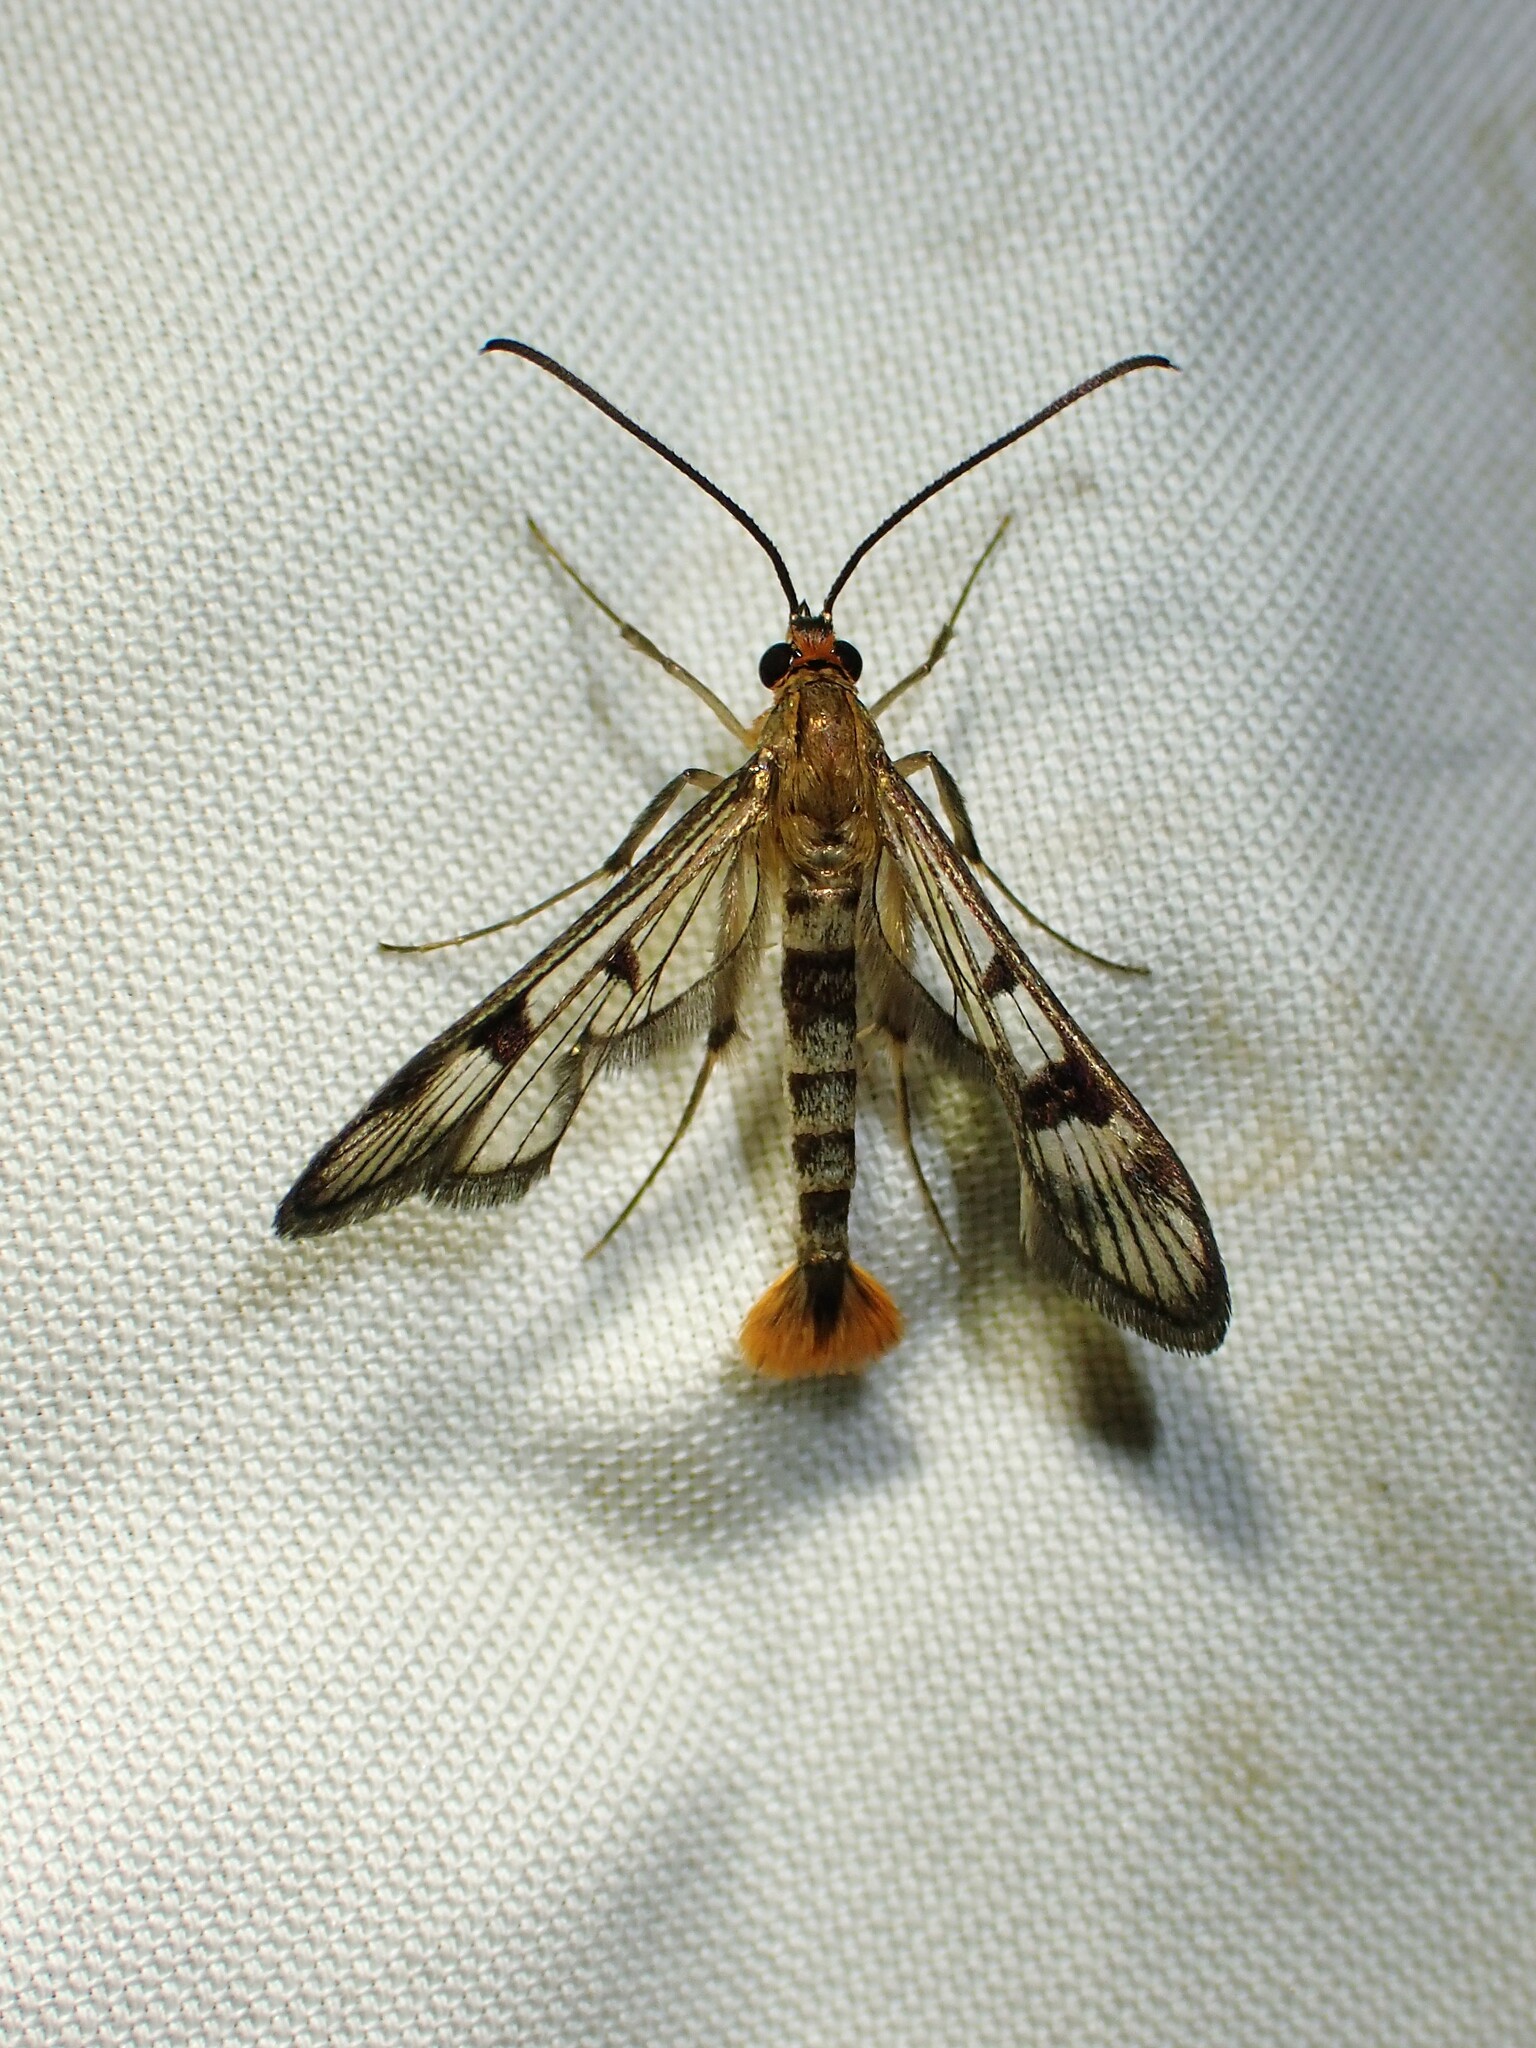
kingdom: Animalia
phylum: Arthropoda
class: Insecta
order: Lepidoptera
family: Sesiidae
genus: Synanthedon
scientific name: Synanthedon acerni
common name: Maple callus borer moth
